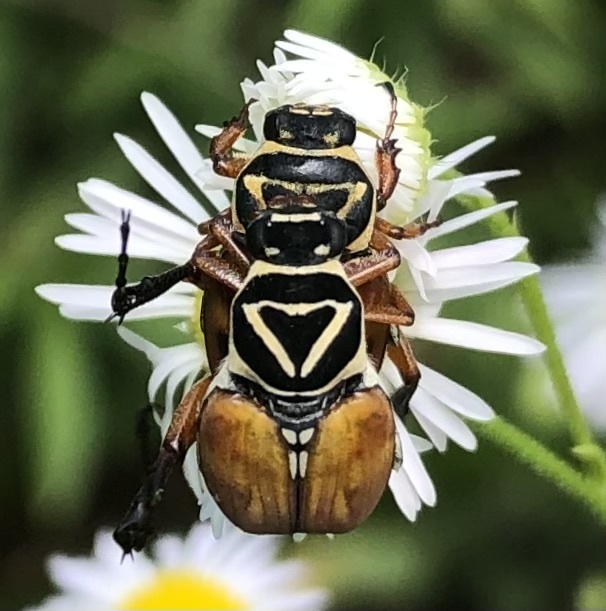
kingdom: Animalia
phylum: Arthropoda
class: Insecta
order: Coleoptera
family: Scarabaeidae
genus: Trigonopeltastes
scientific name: Trigonopeltastes delta
